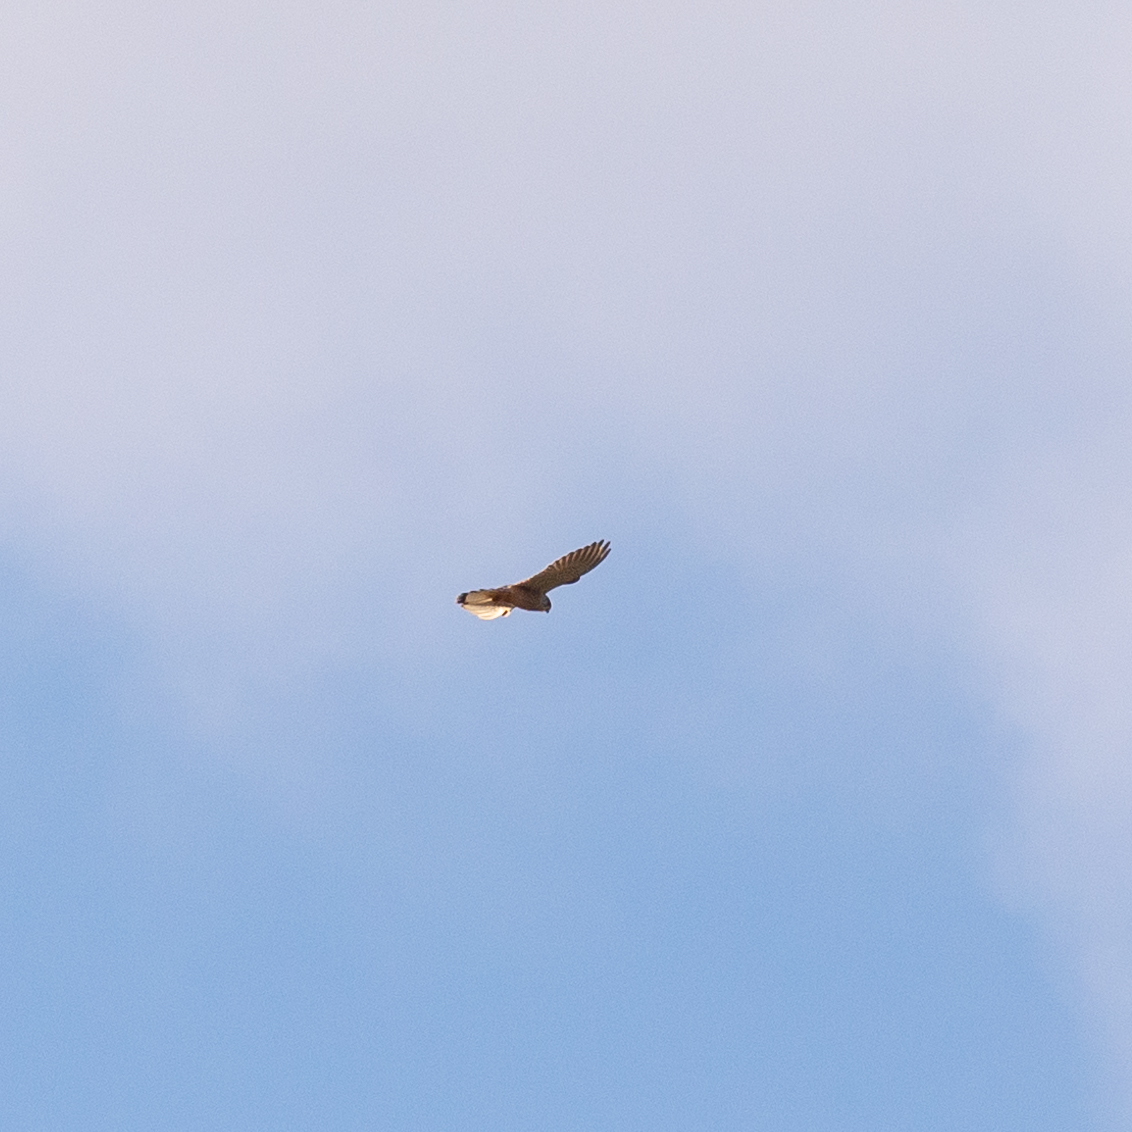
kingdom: Animalia
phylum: Chordata
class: Aves
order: Falconiformes
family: Falconidae
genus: Falco
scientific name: Falco tinnunculus
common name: Common kestrel
